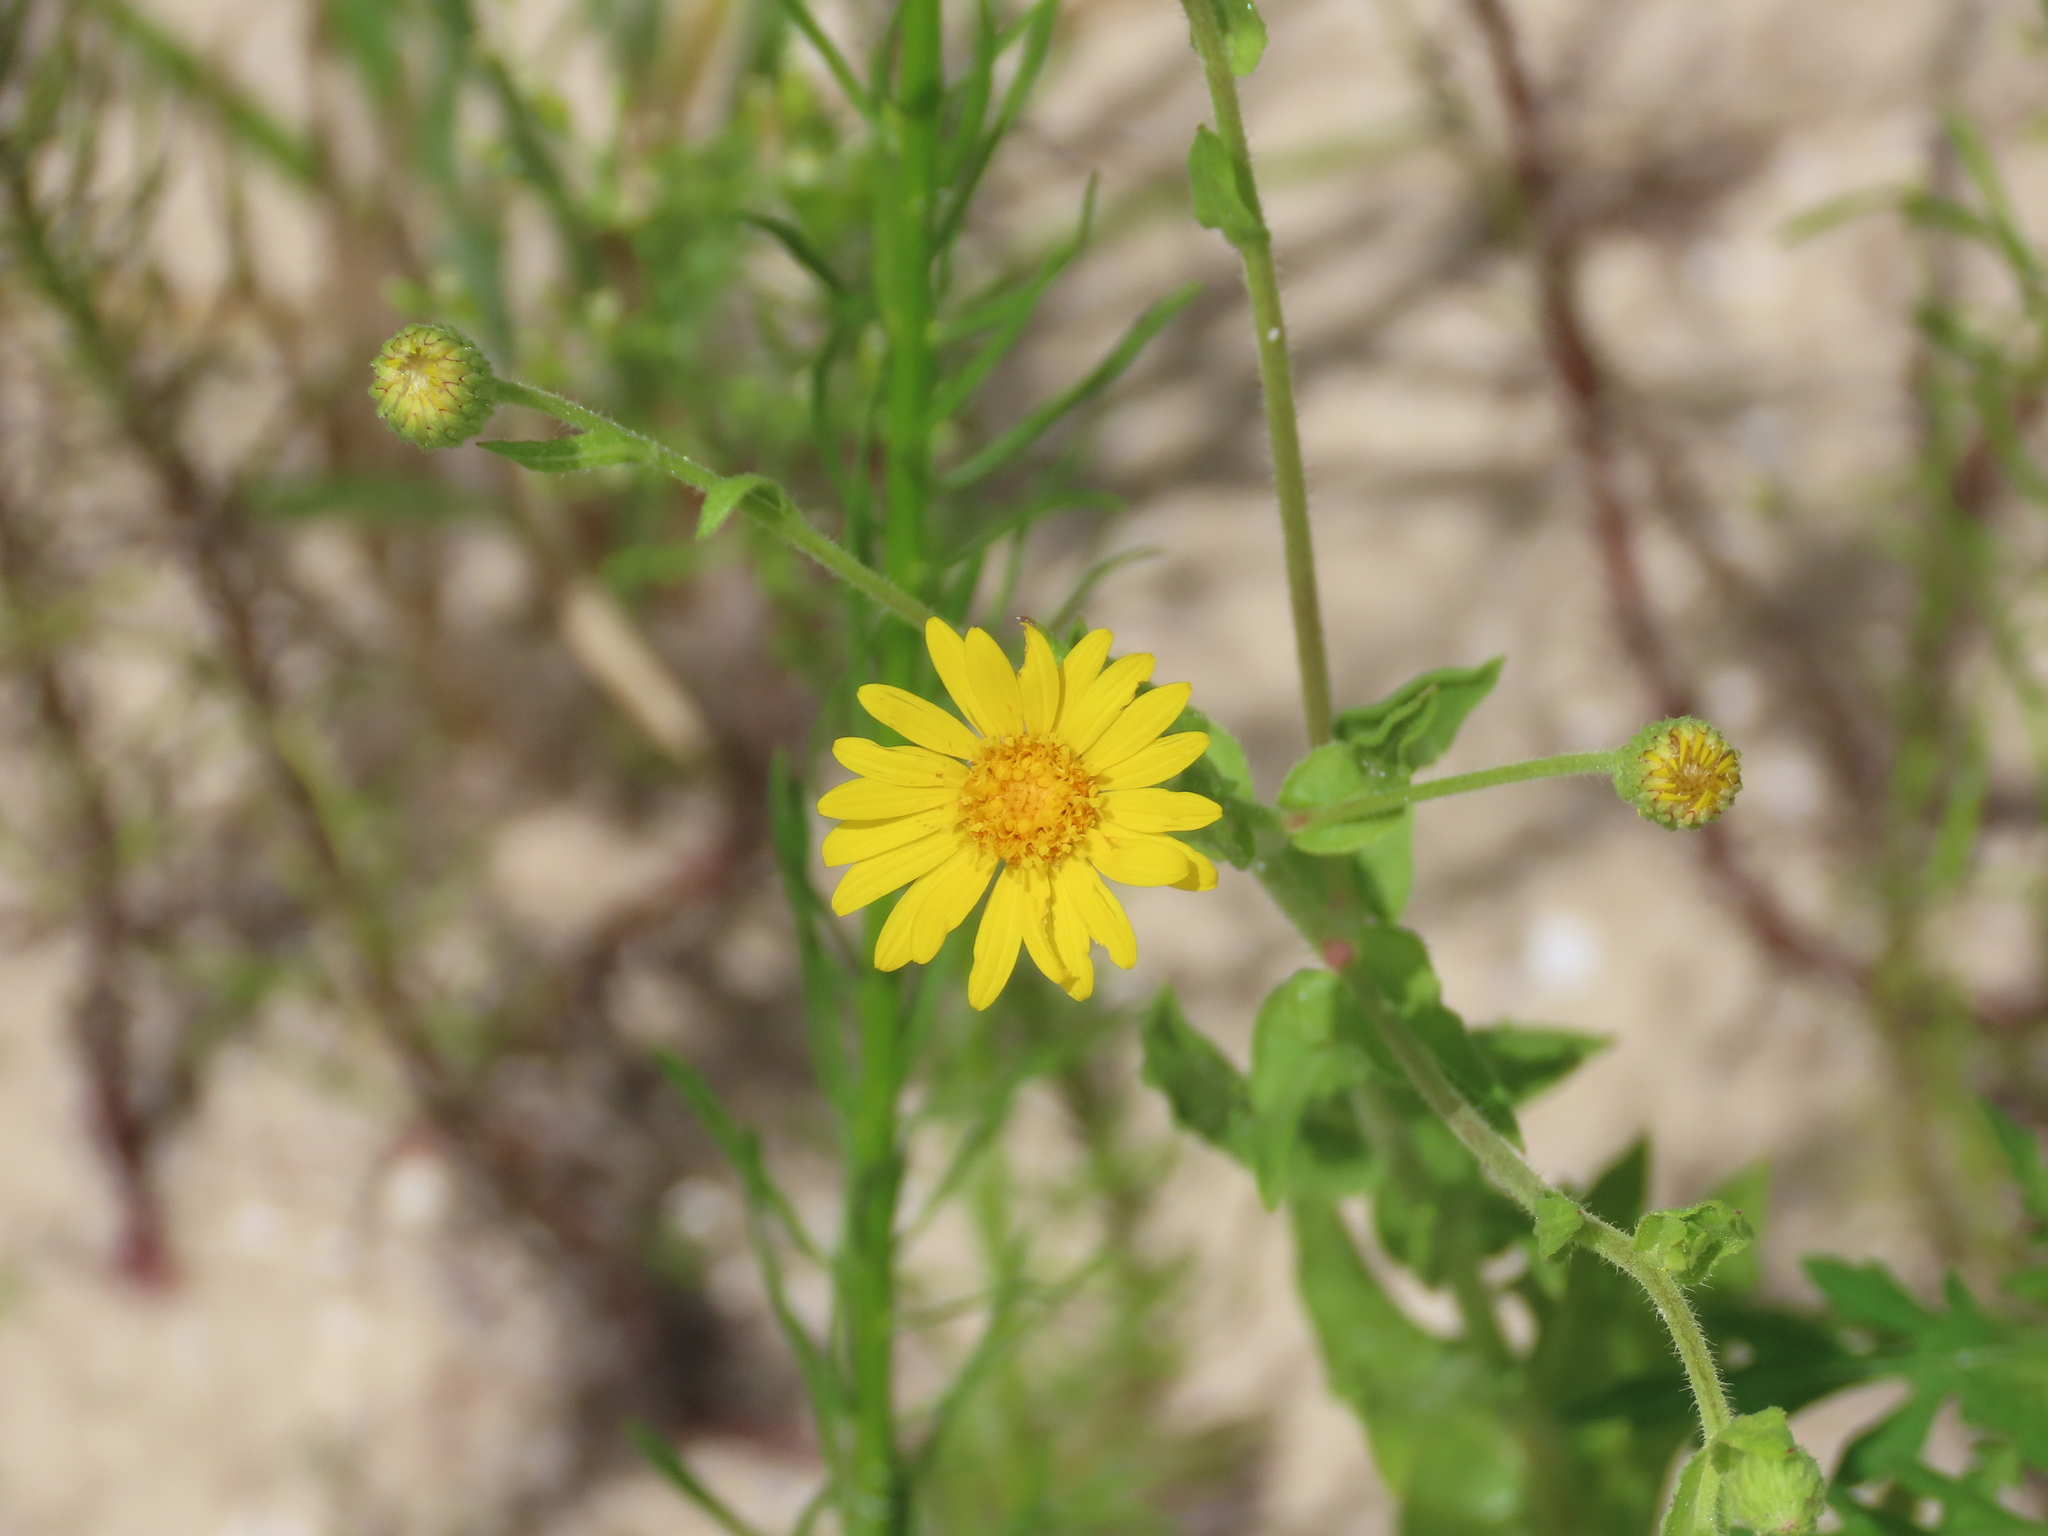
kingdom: Plantae
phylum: Tracheophyta
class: Magnoliopsida
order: Asterales
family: Asteraceae
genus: Heterotheca
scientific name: Heterotheca subaxillaris
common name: Camphorweed
